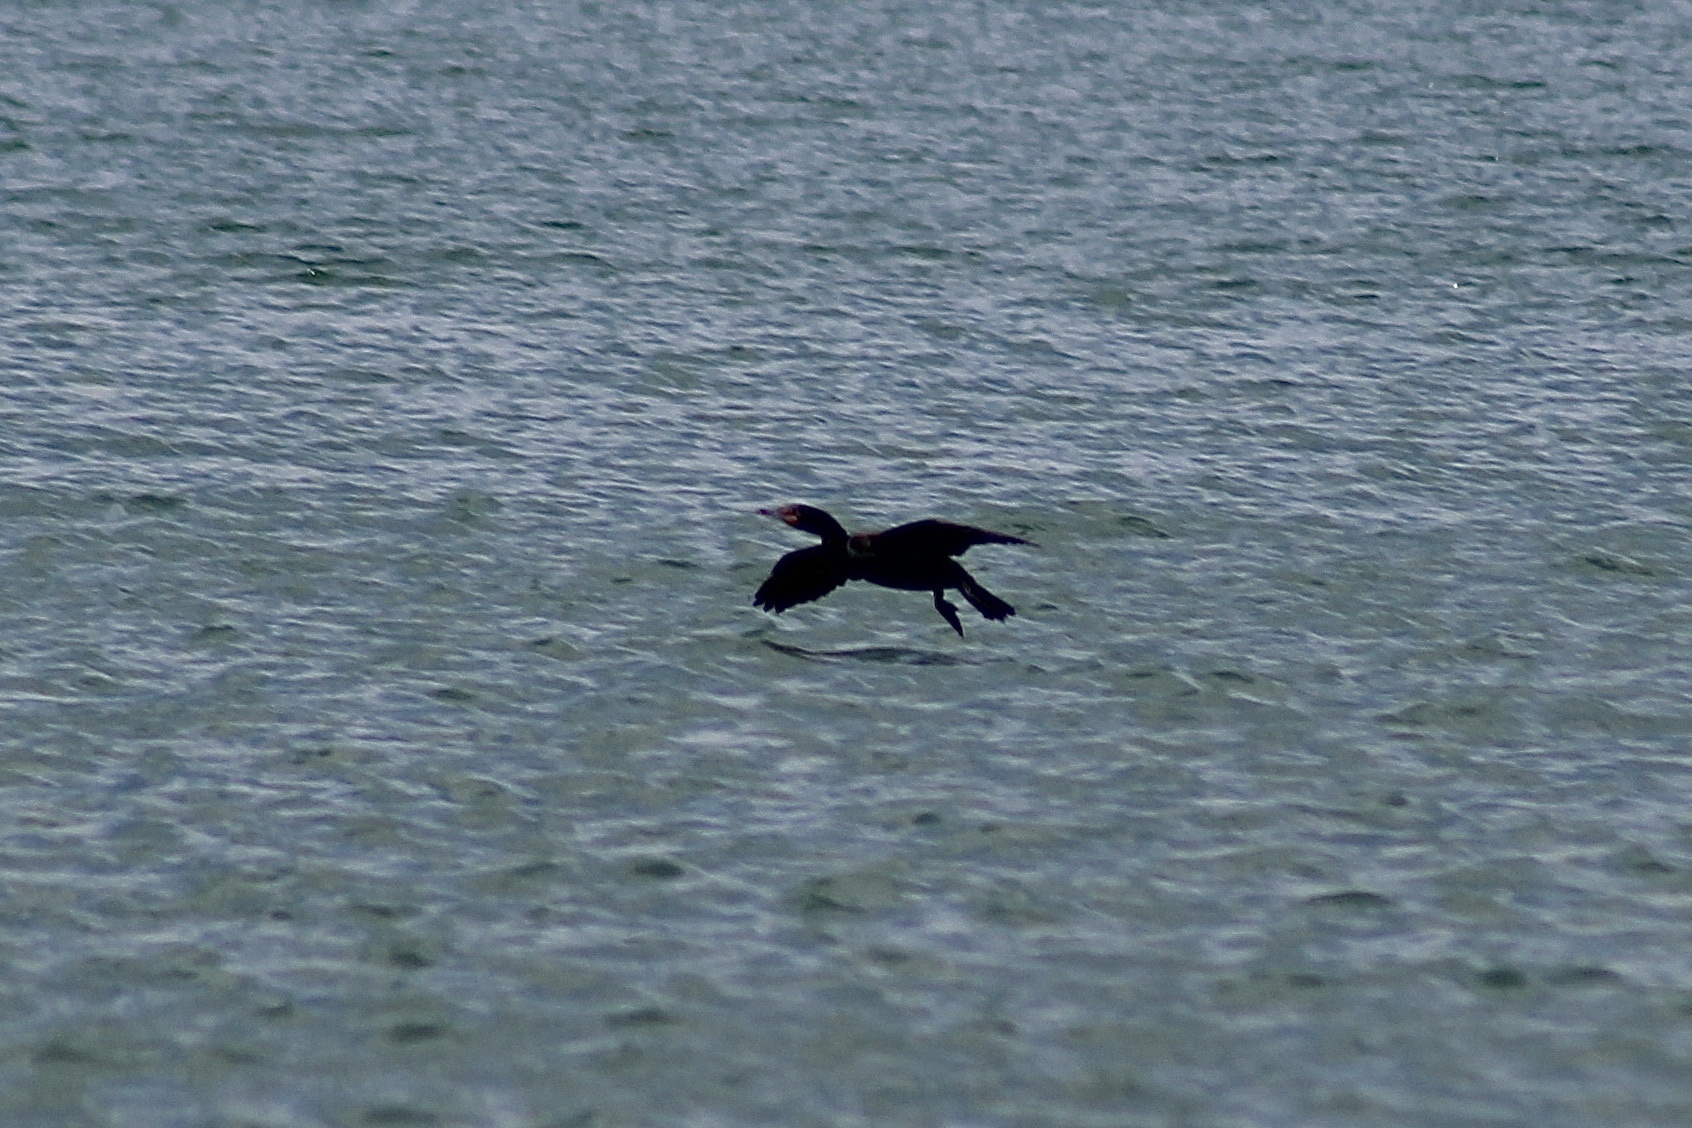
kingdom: Animalia
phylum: Chordata
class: Aves
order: Suliformes
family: Phalacrocoracidae
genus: Phalacrocorax
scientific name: Phalacrocorax auritus
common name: Double-crested cormorant
